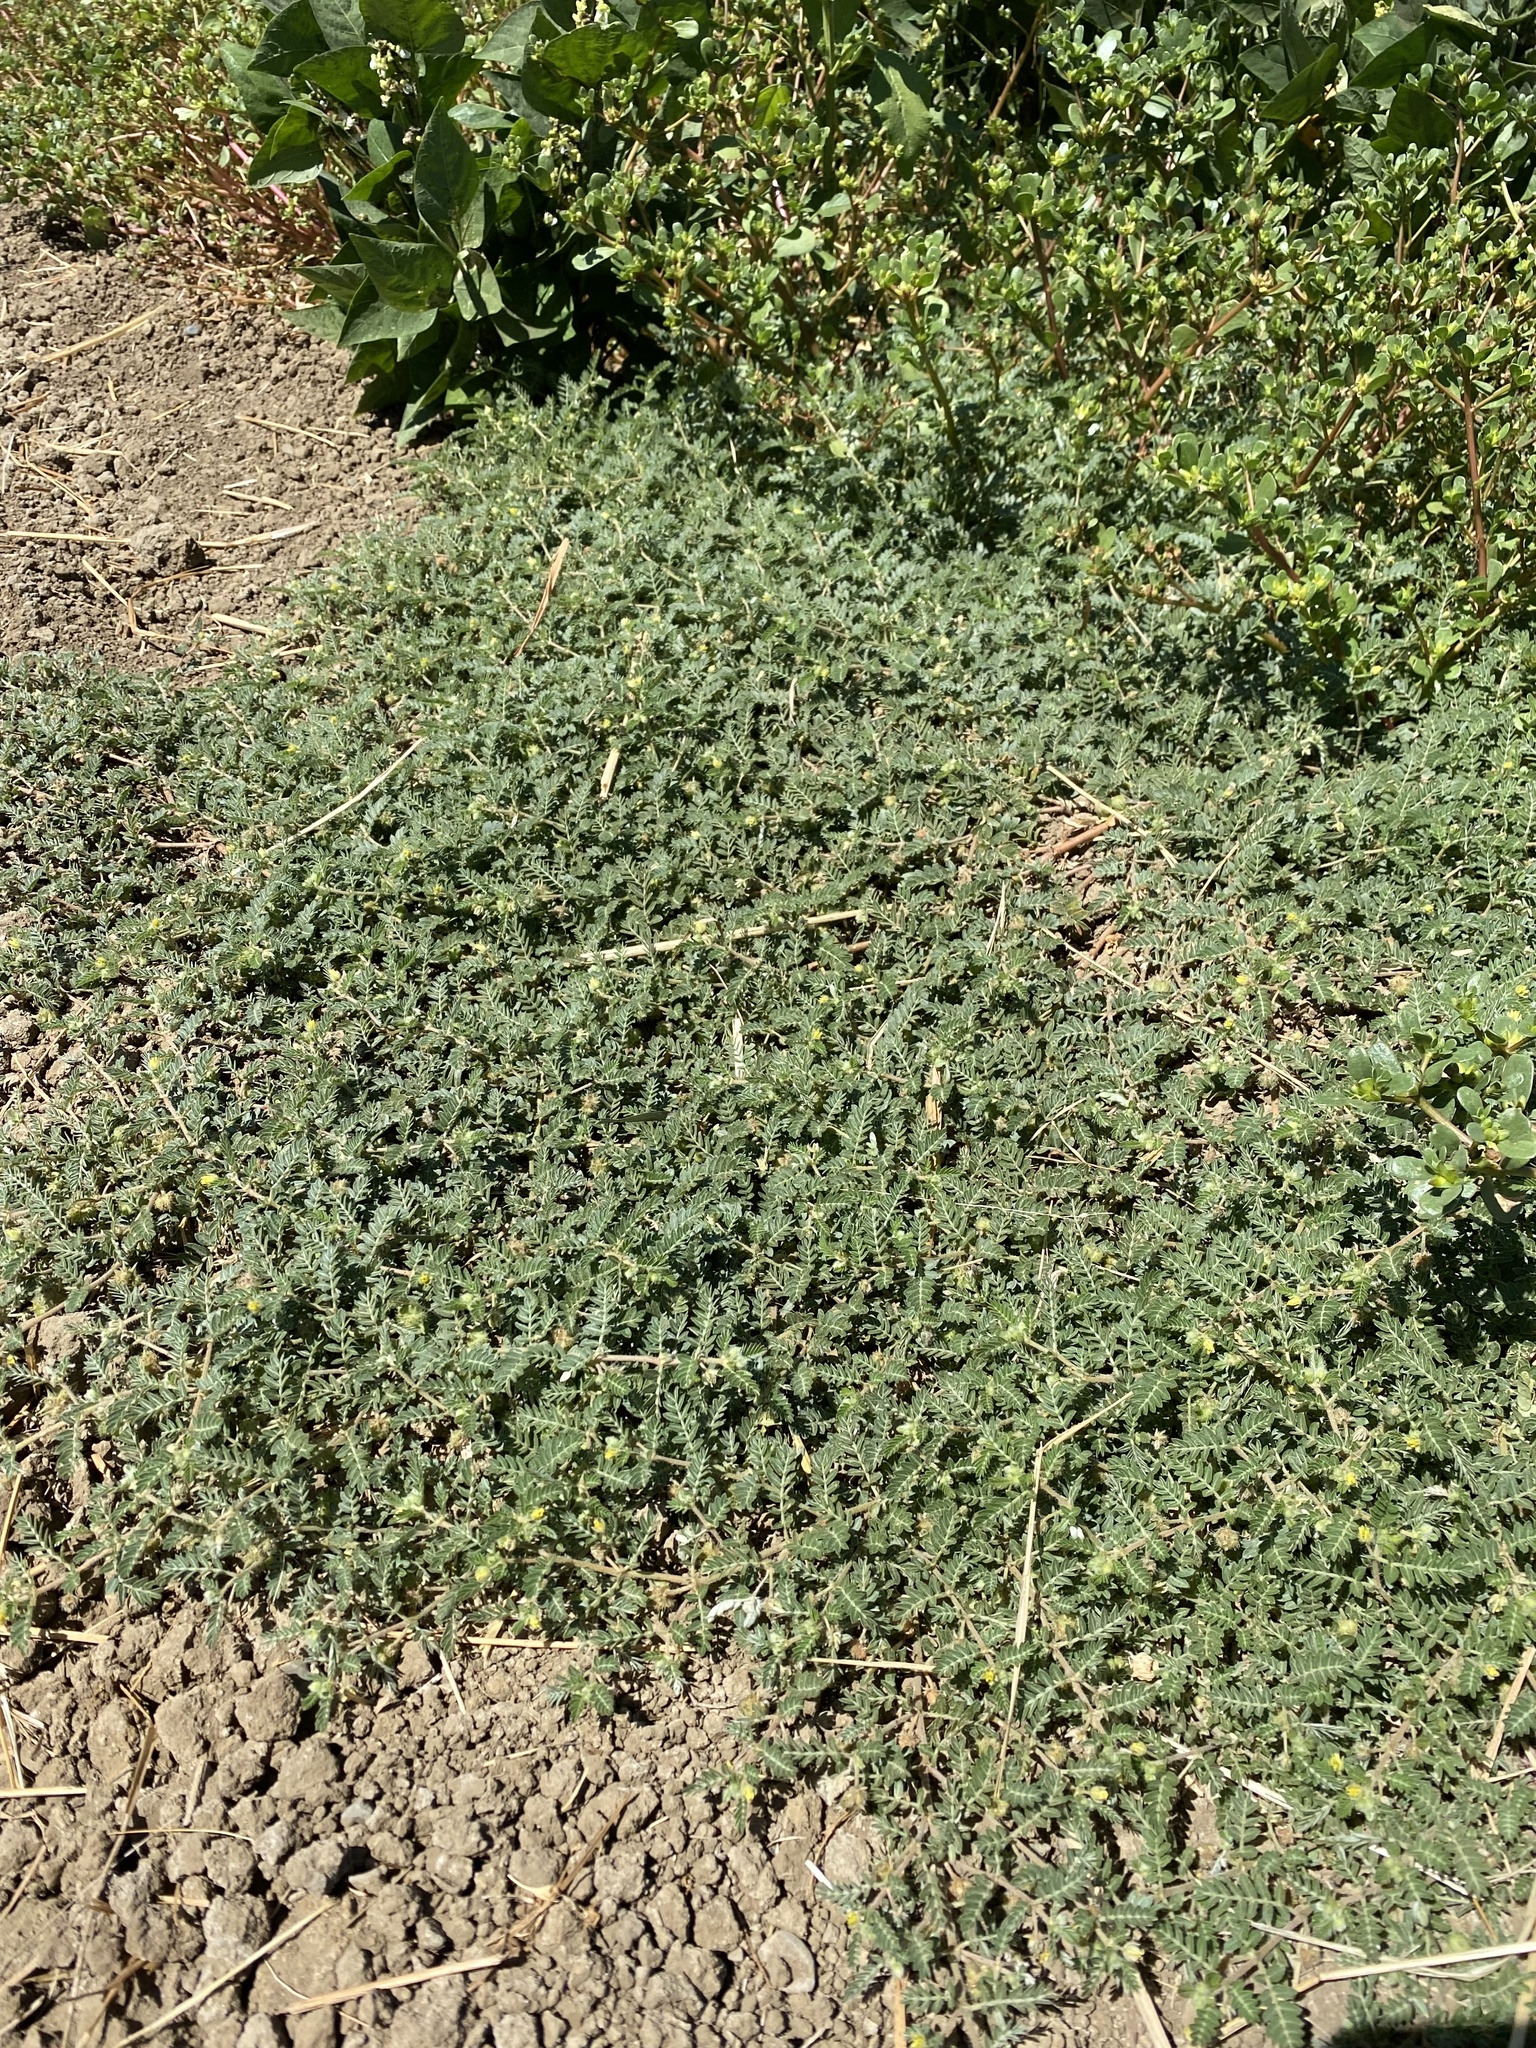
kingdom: Plantae
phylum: Tracheophyta
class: Magnoliopsida
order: Zygophyllales
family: Zygophyllaceae
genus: Tribulus
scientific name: Tribulus terrestris
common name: Puncturevine
